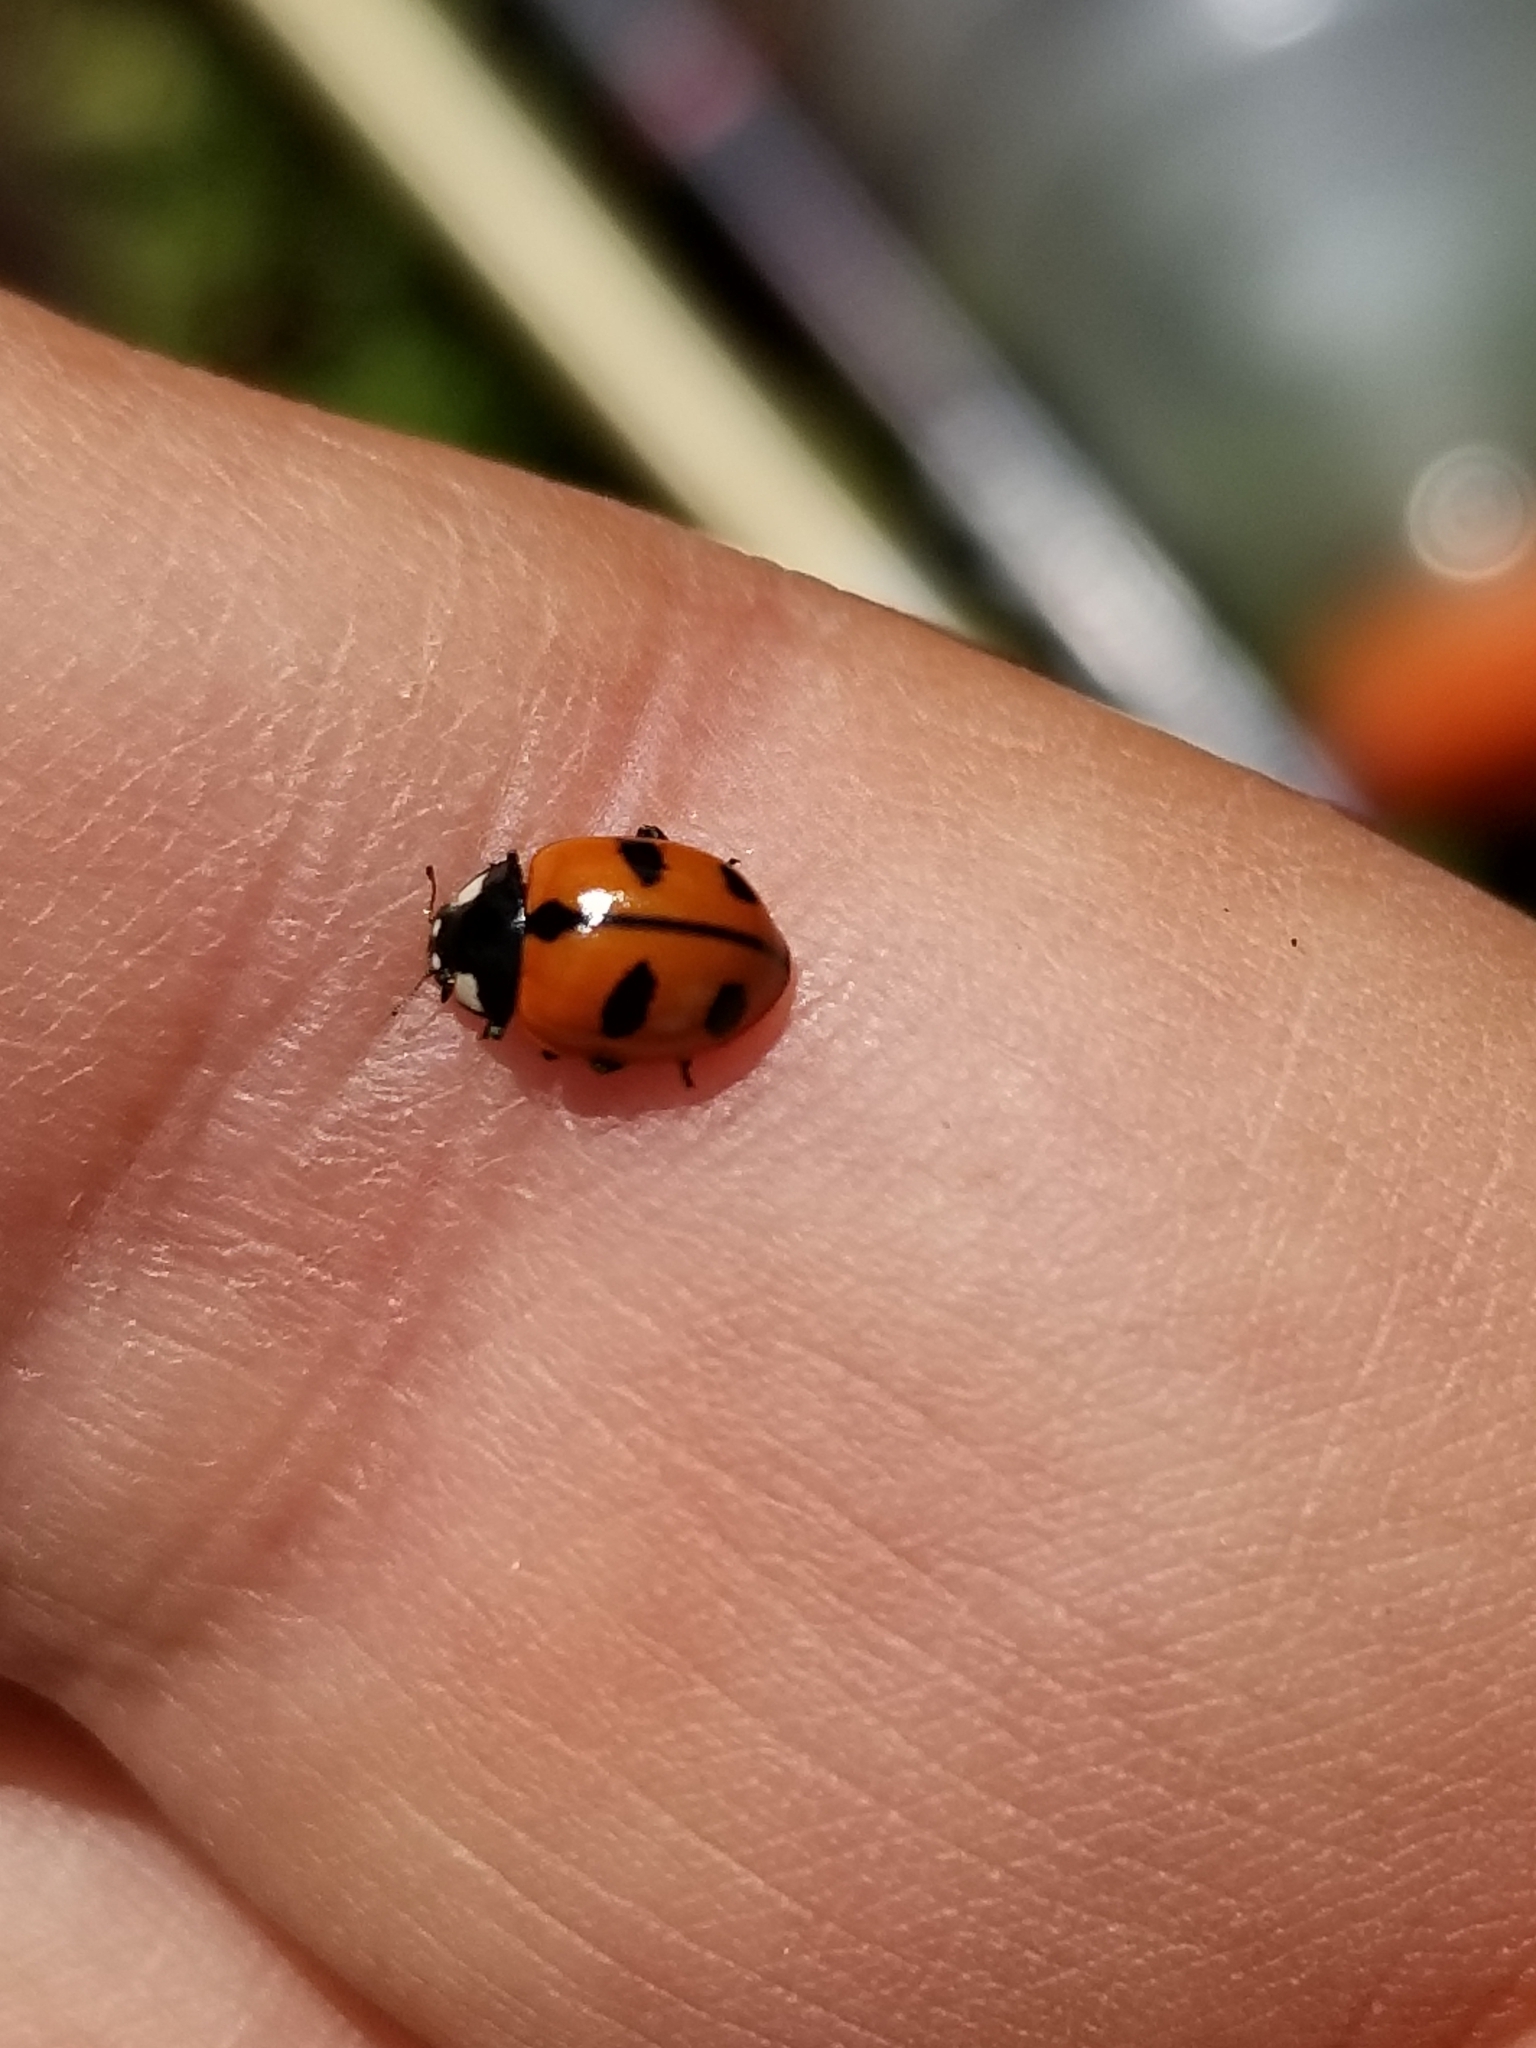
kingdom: Animalia
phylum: Arthropoda
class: Insecta
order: Coleoptera
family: Coccinellidae
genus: Coccinella
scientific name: Coccinella alta
